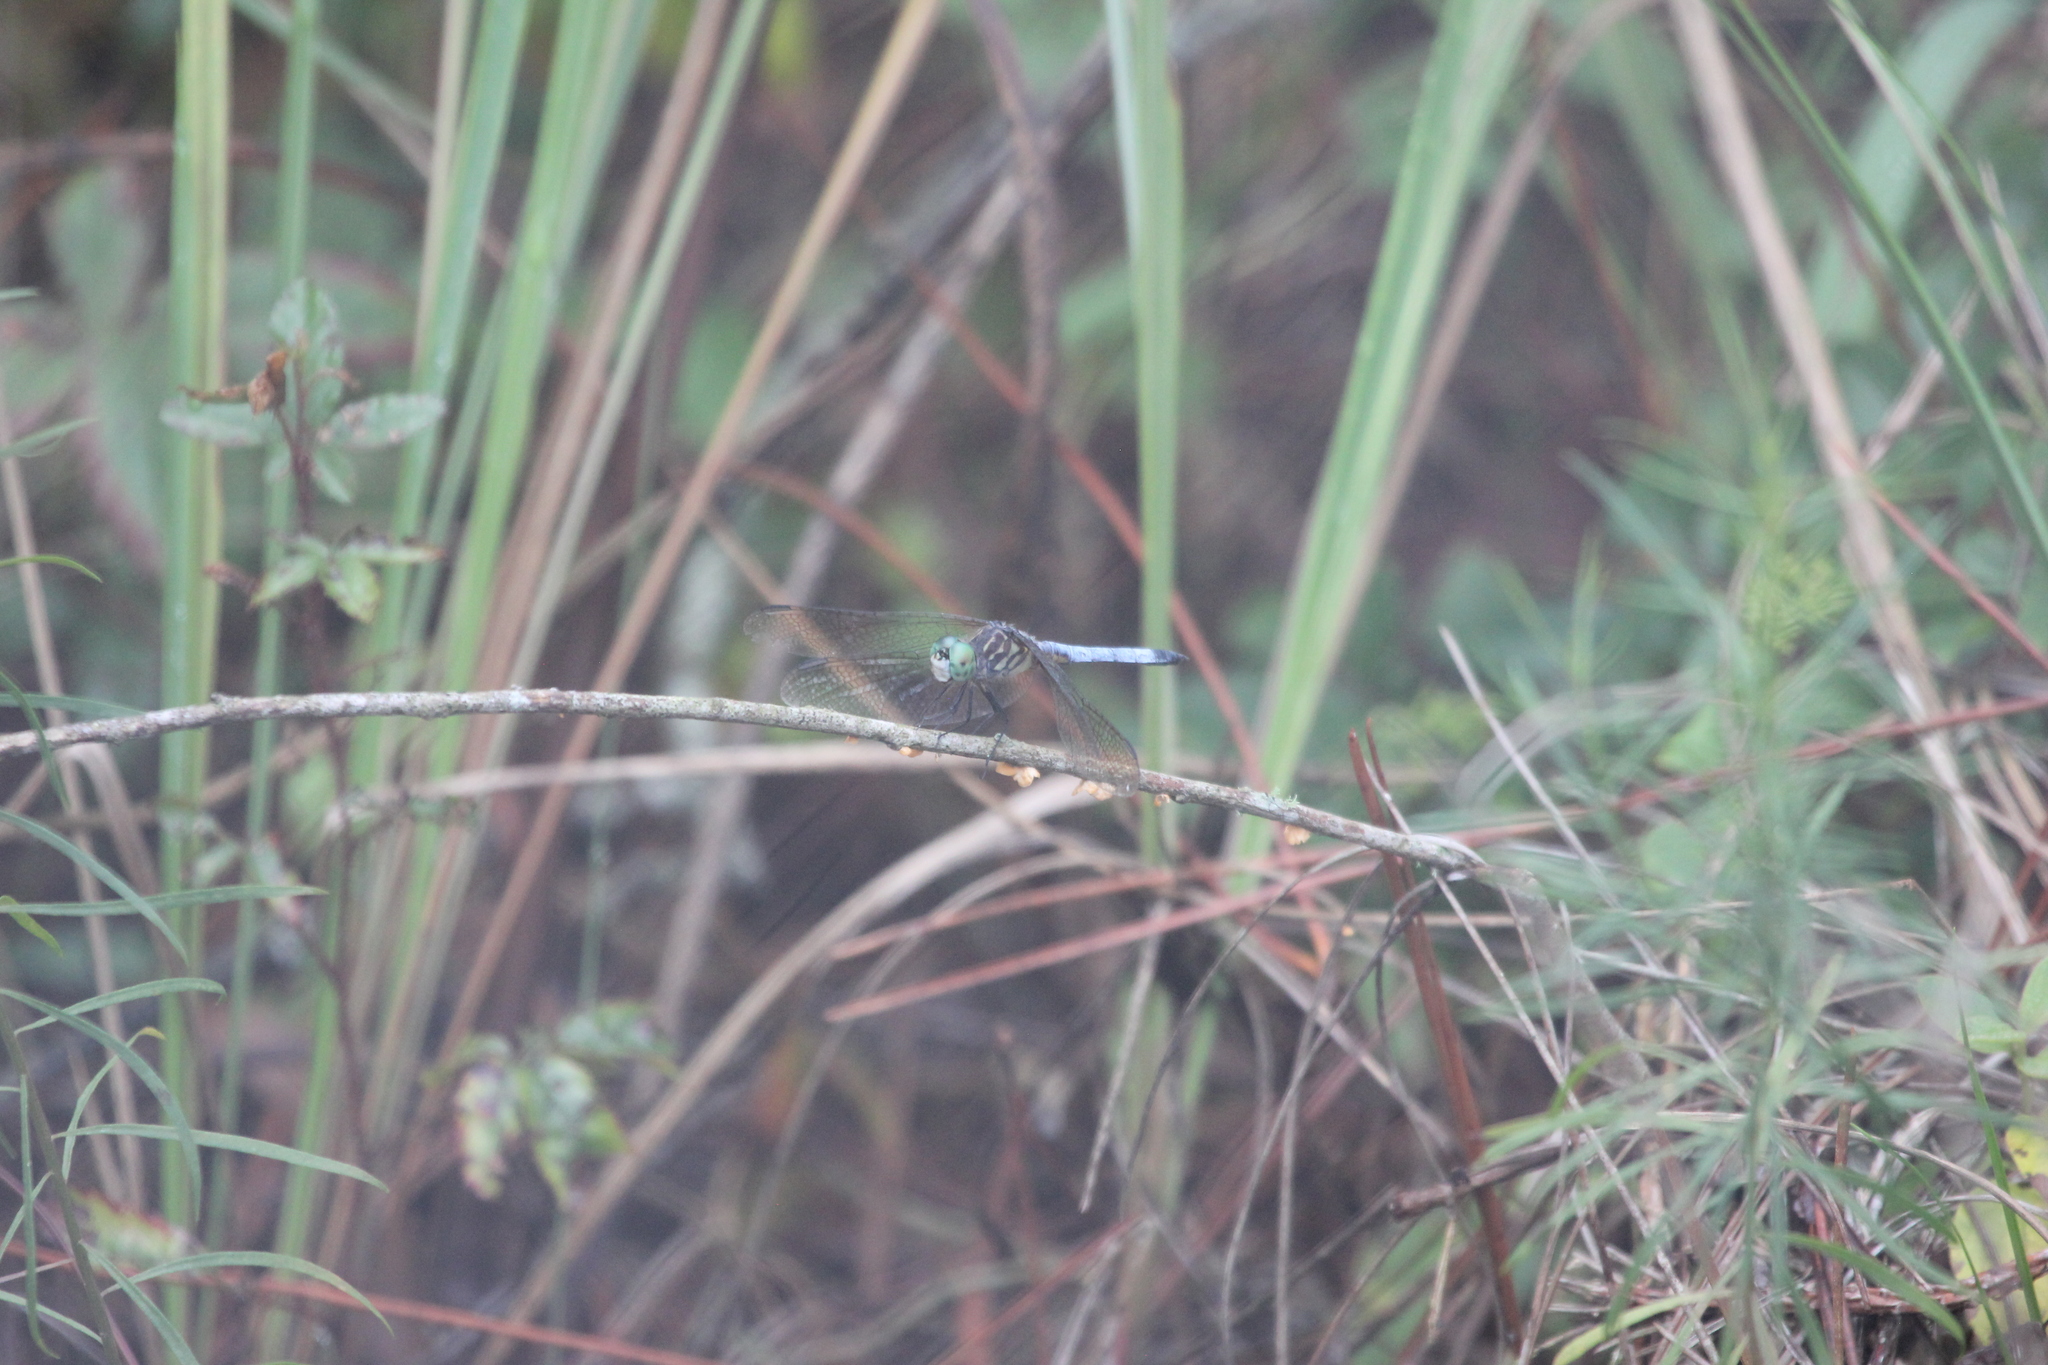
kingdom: Animalia
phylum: Arthropoda
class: Insecta
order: Odonata
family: Libellulidae
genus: Pachydiplax
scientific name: Pachydiplax longipennis
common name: Blue dasher
